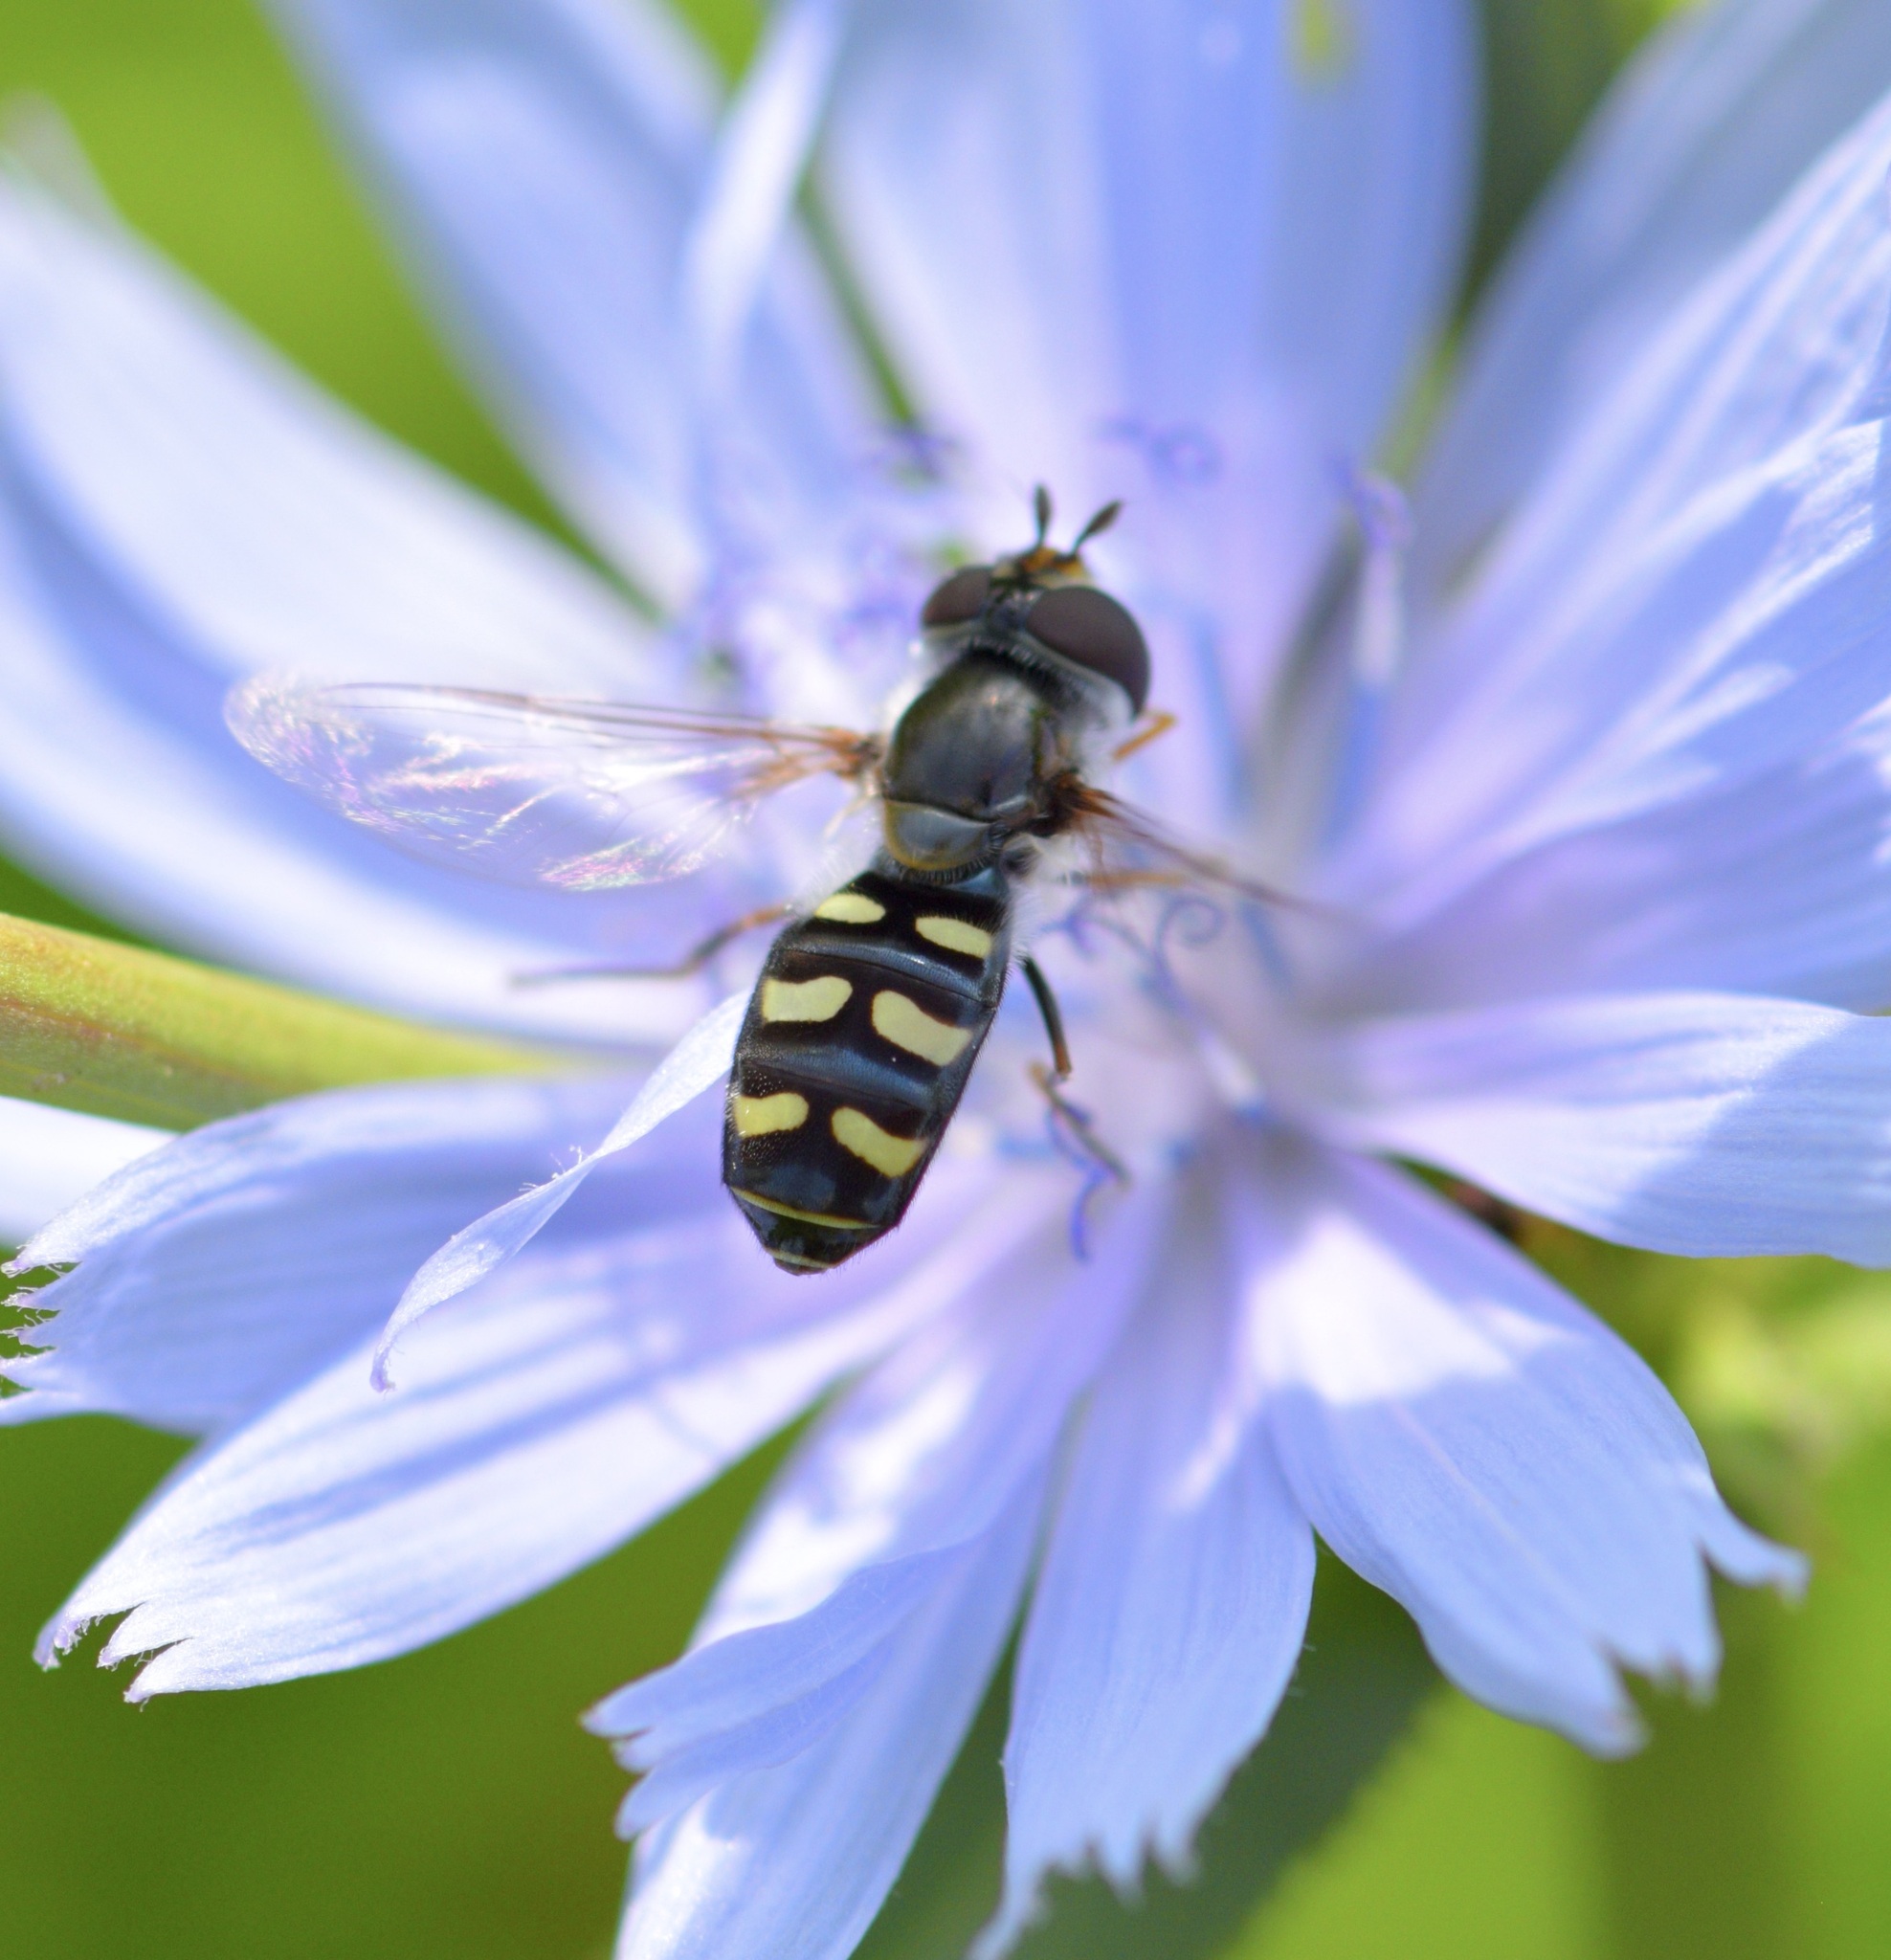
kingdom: Animalia
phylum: Arthropoda
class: Insecta
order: Diptera
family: Syrphidae
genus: Eupeodes
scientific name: Eupeodes perplexus
